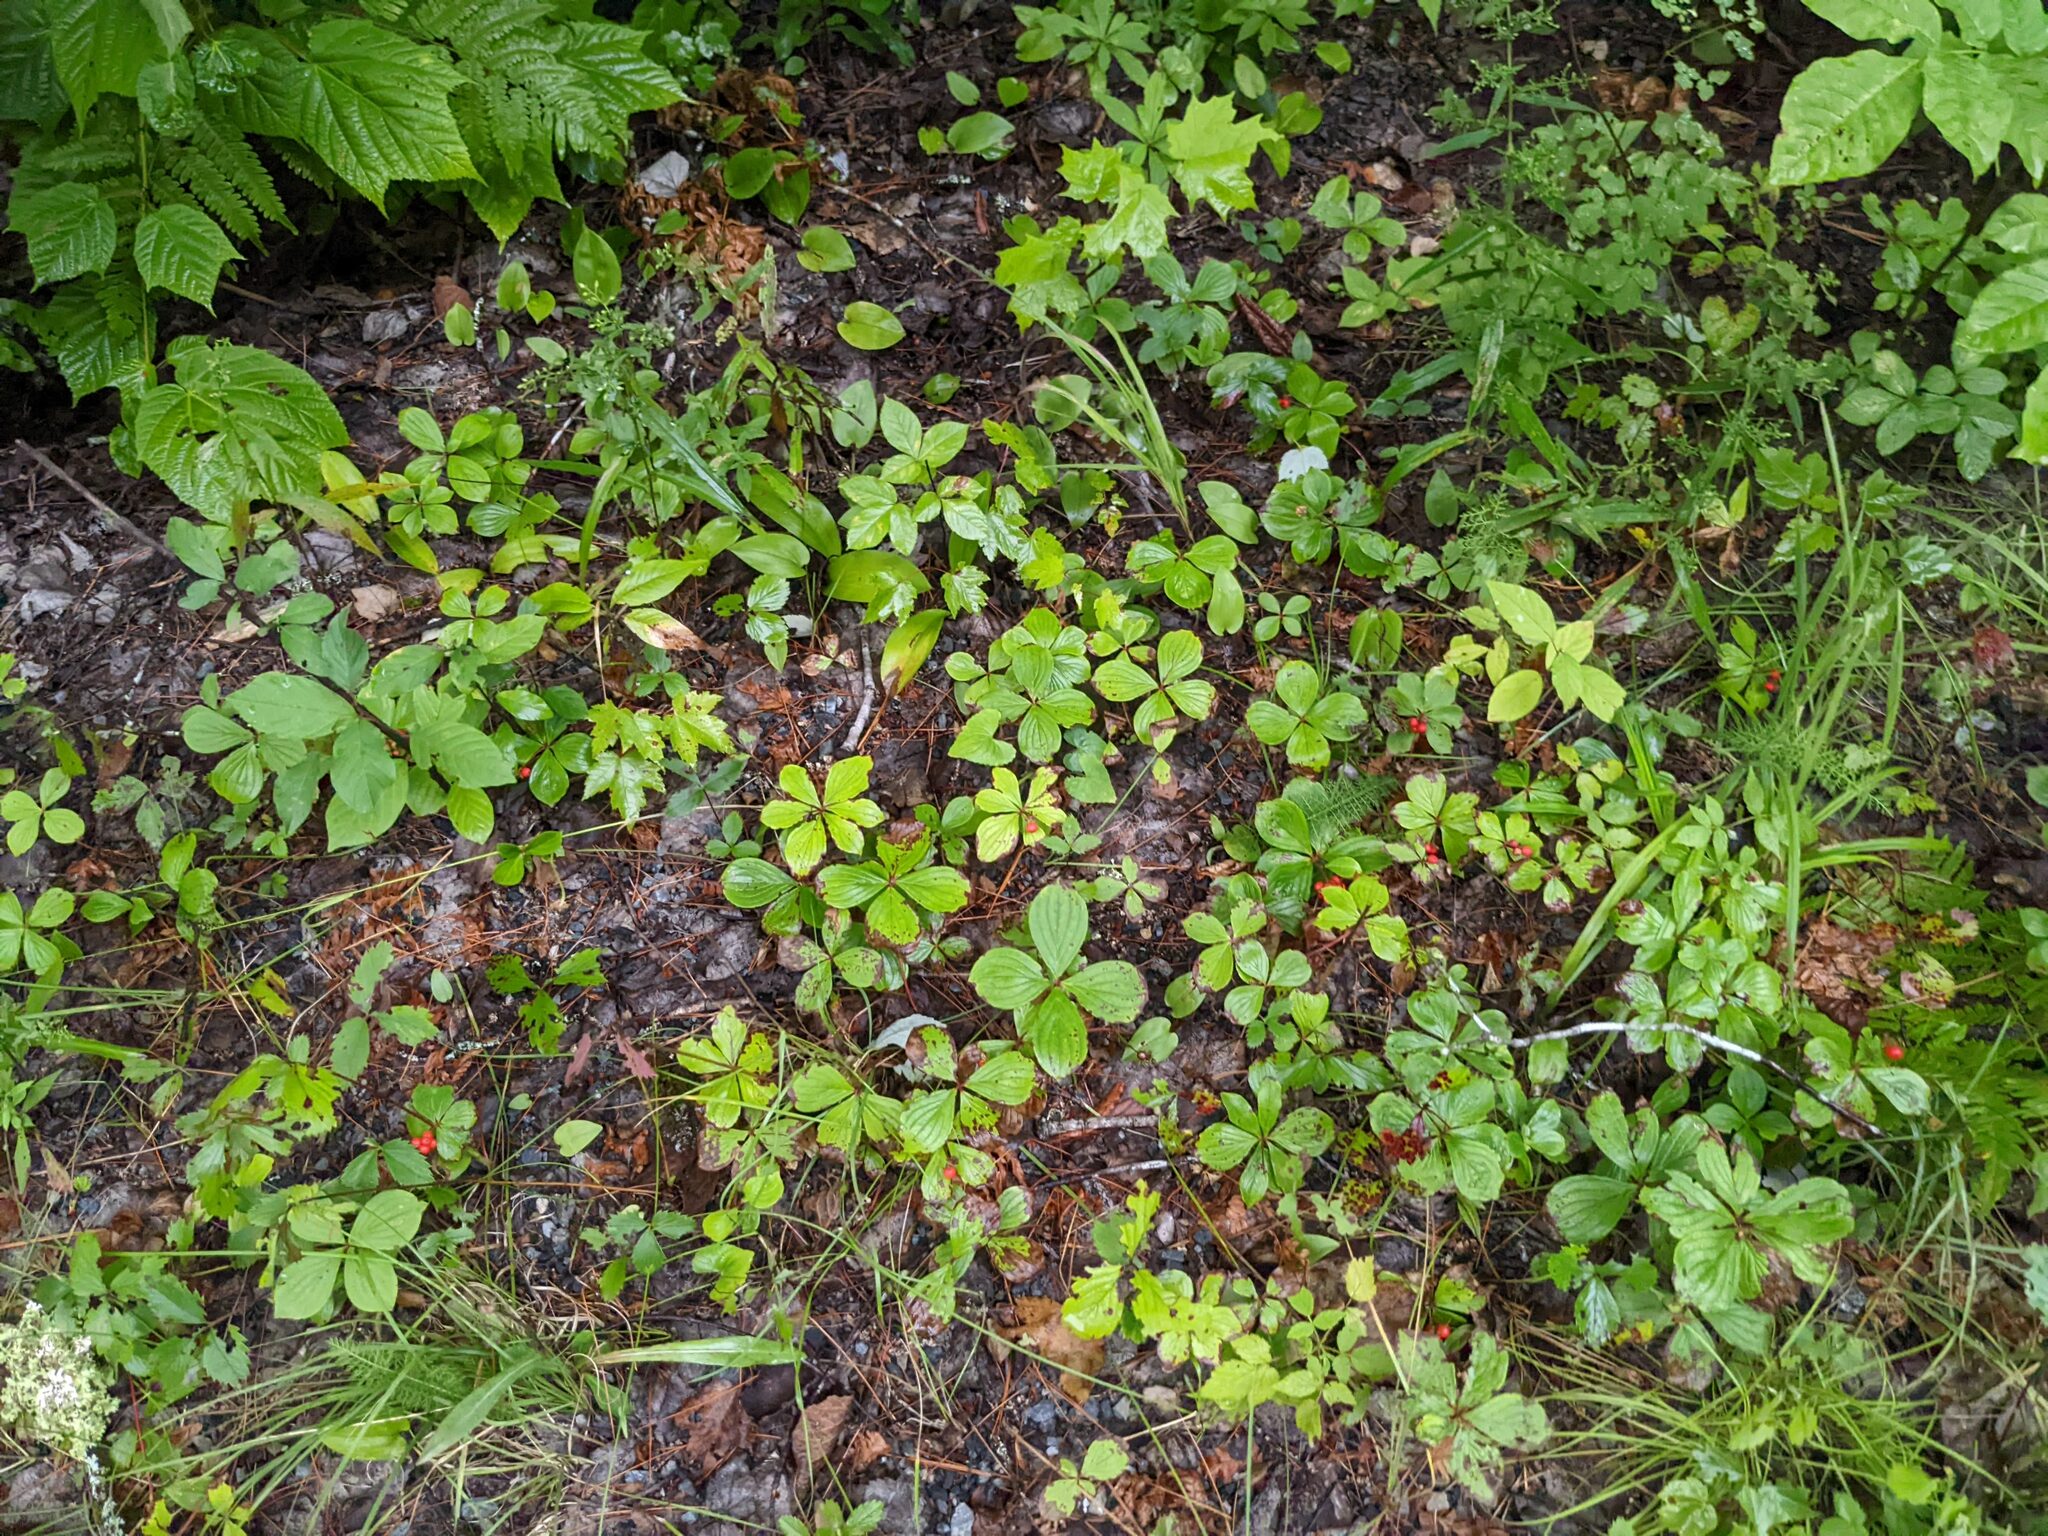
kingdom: Plantae
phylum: Tracheophyta
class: Magnoliopsida
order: Cornales
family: Cornaceae
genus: Cornus
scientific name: Cornus canadensis
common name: Creeping dogwood
